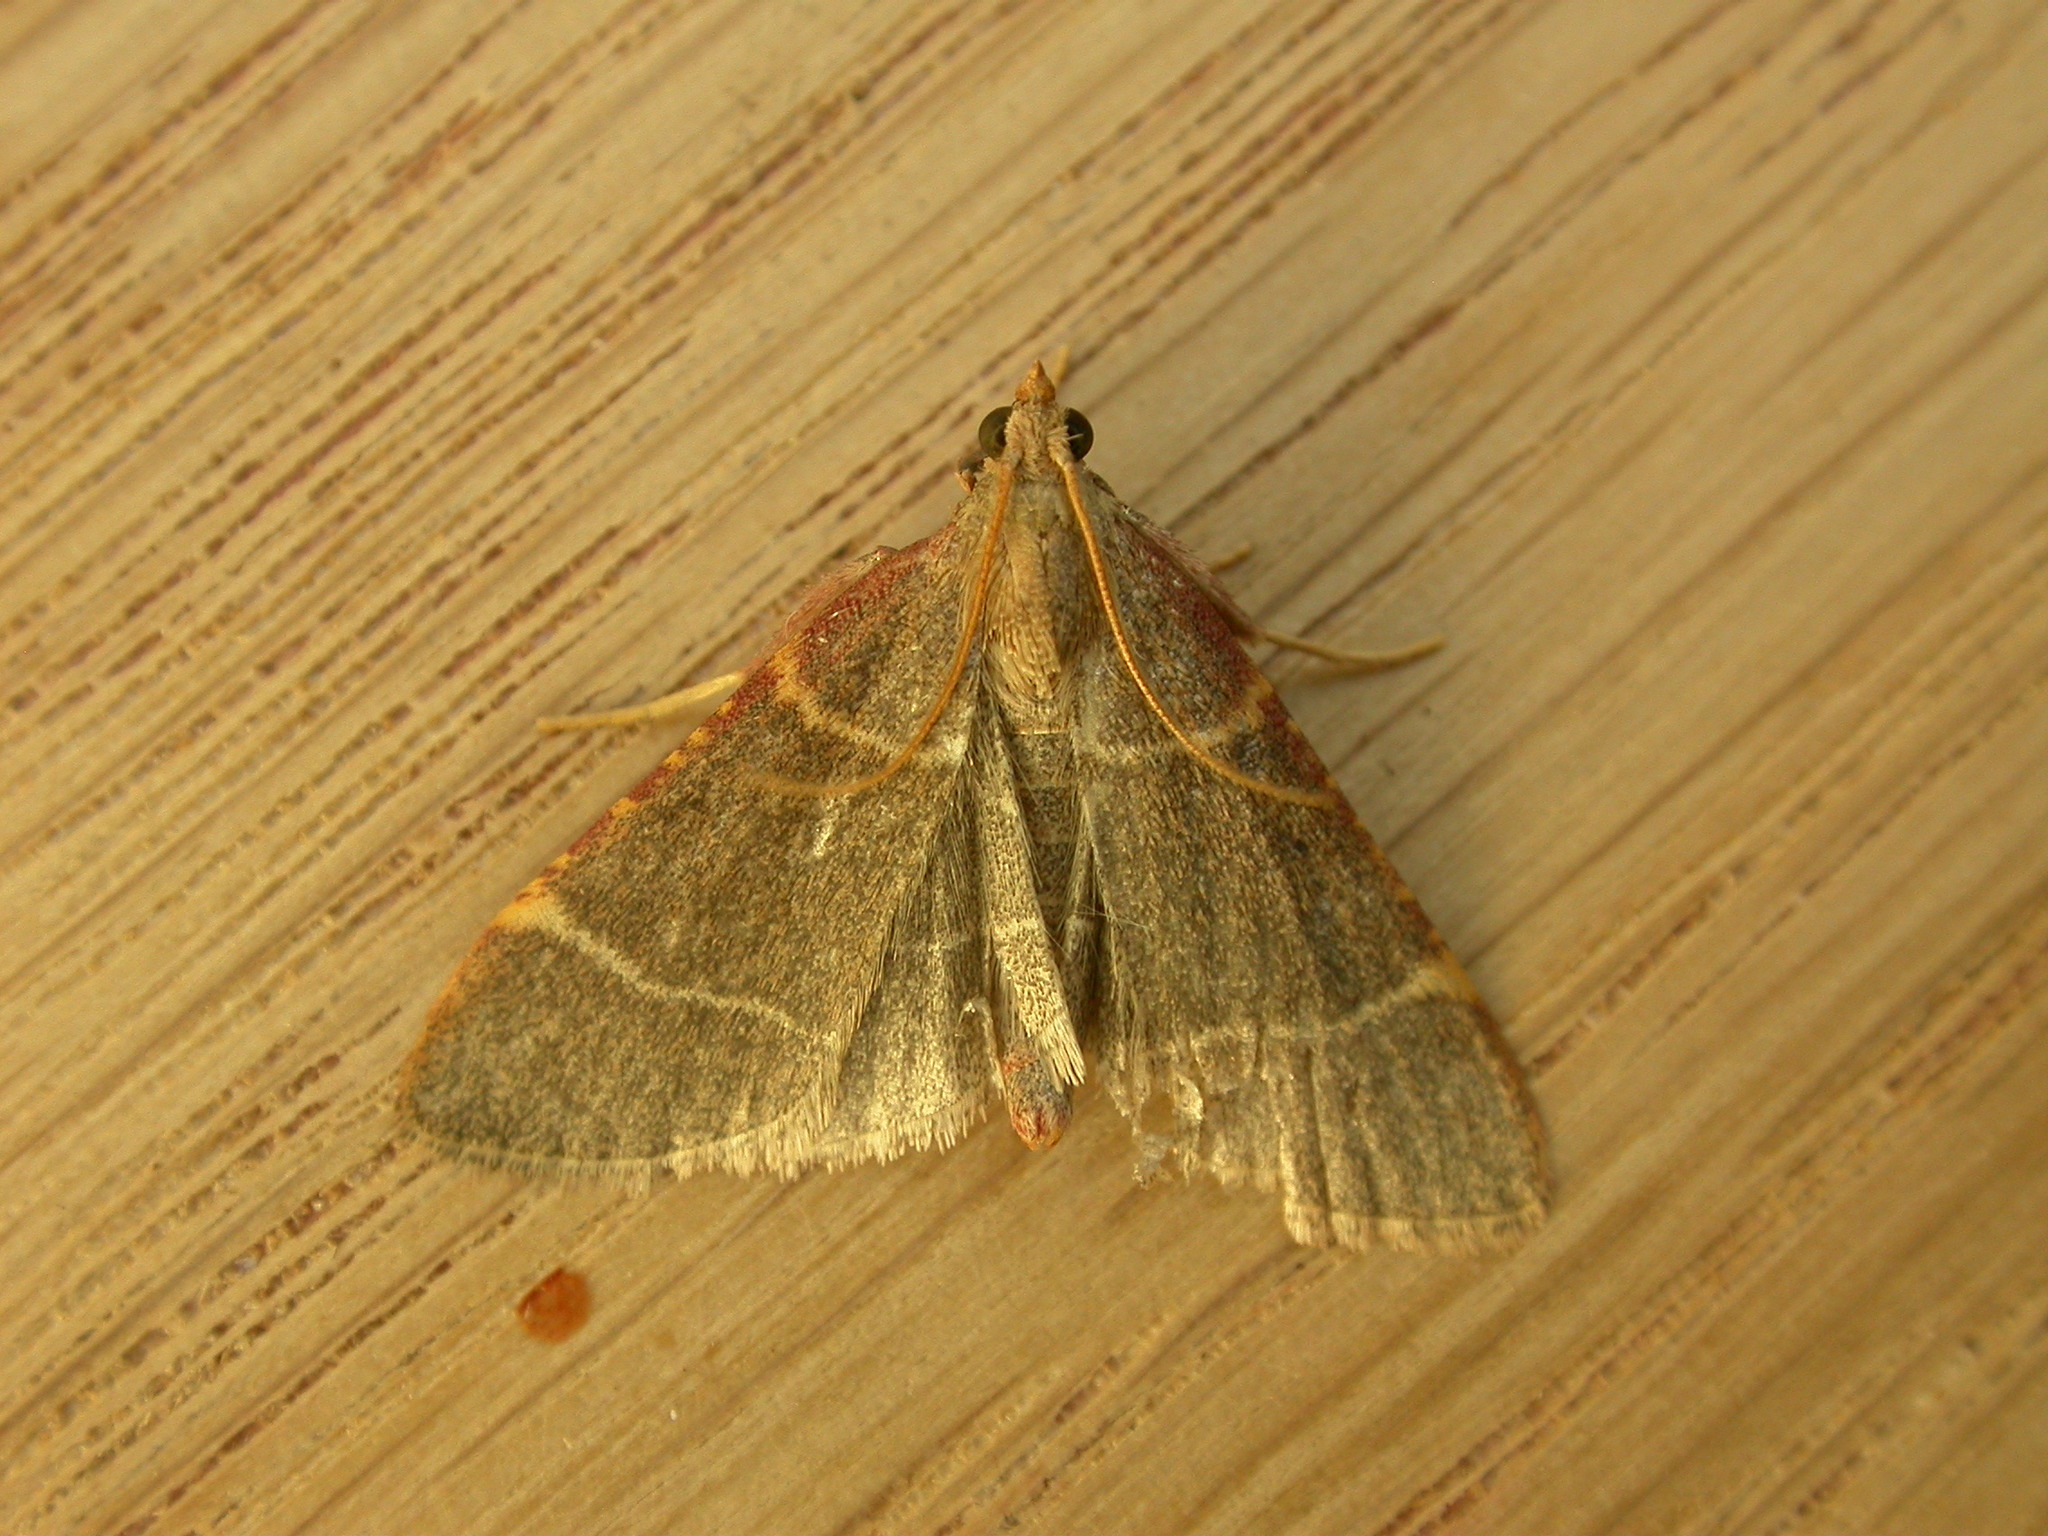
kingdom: Animalia
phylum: Arthropoda
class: Insecta
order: Lepidoptera
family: Pyralidae
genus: Hypsopygia
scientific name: Hypsopygia glaucinalis
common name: Double-striped tabby
